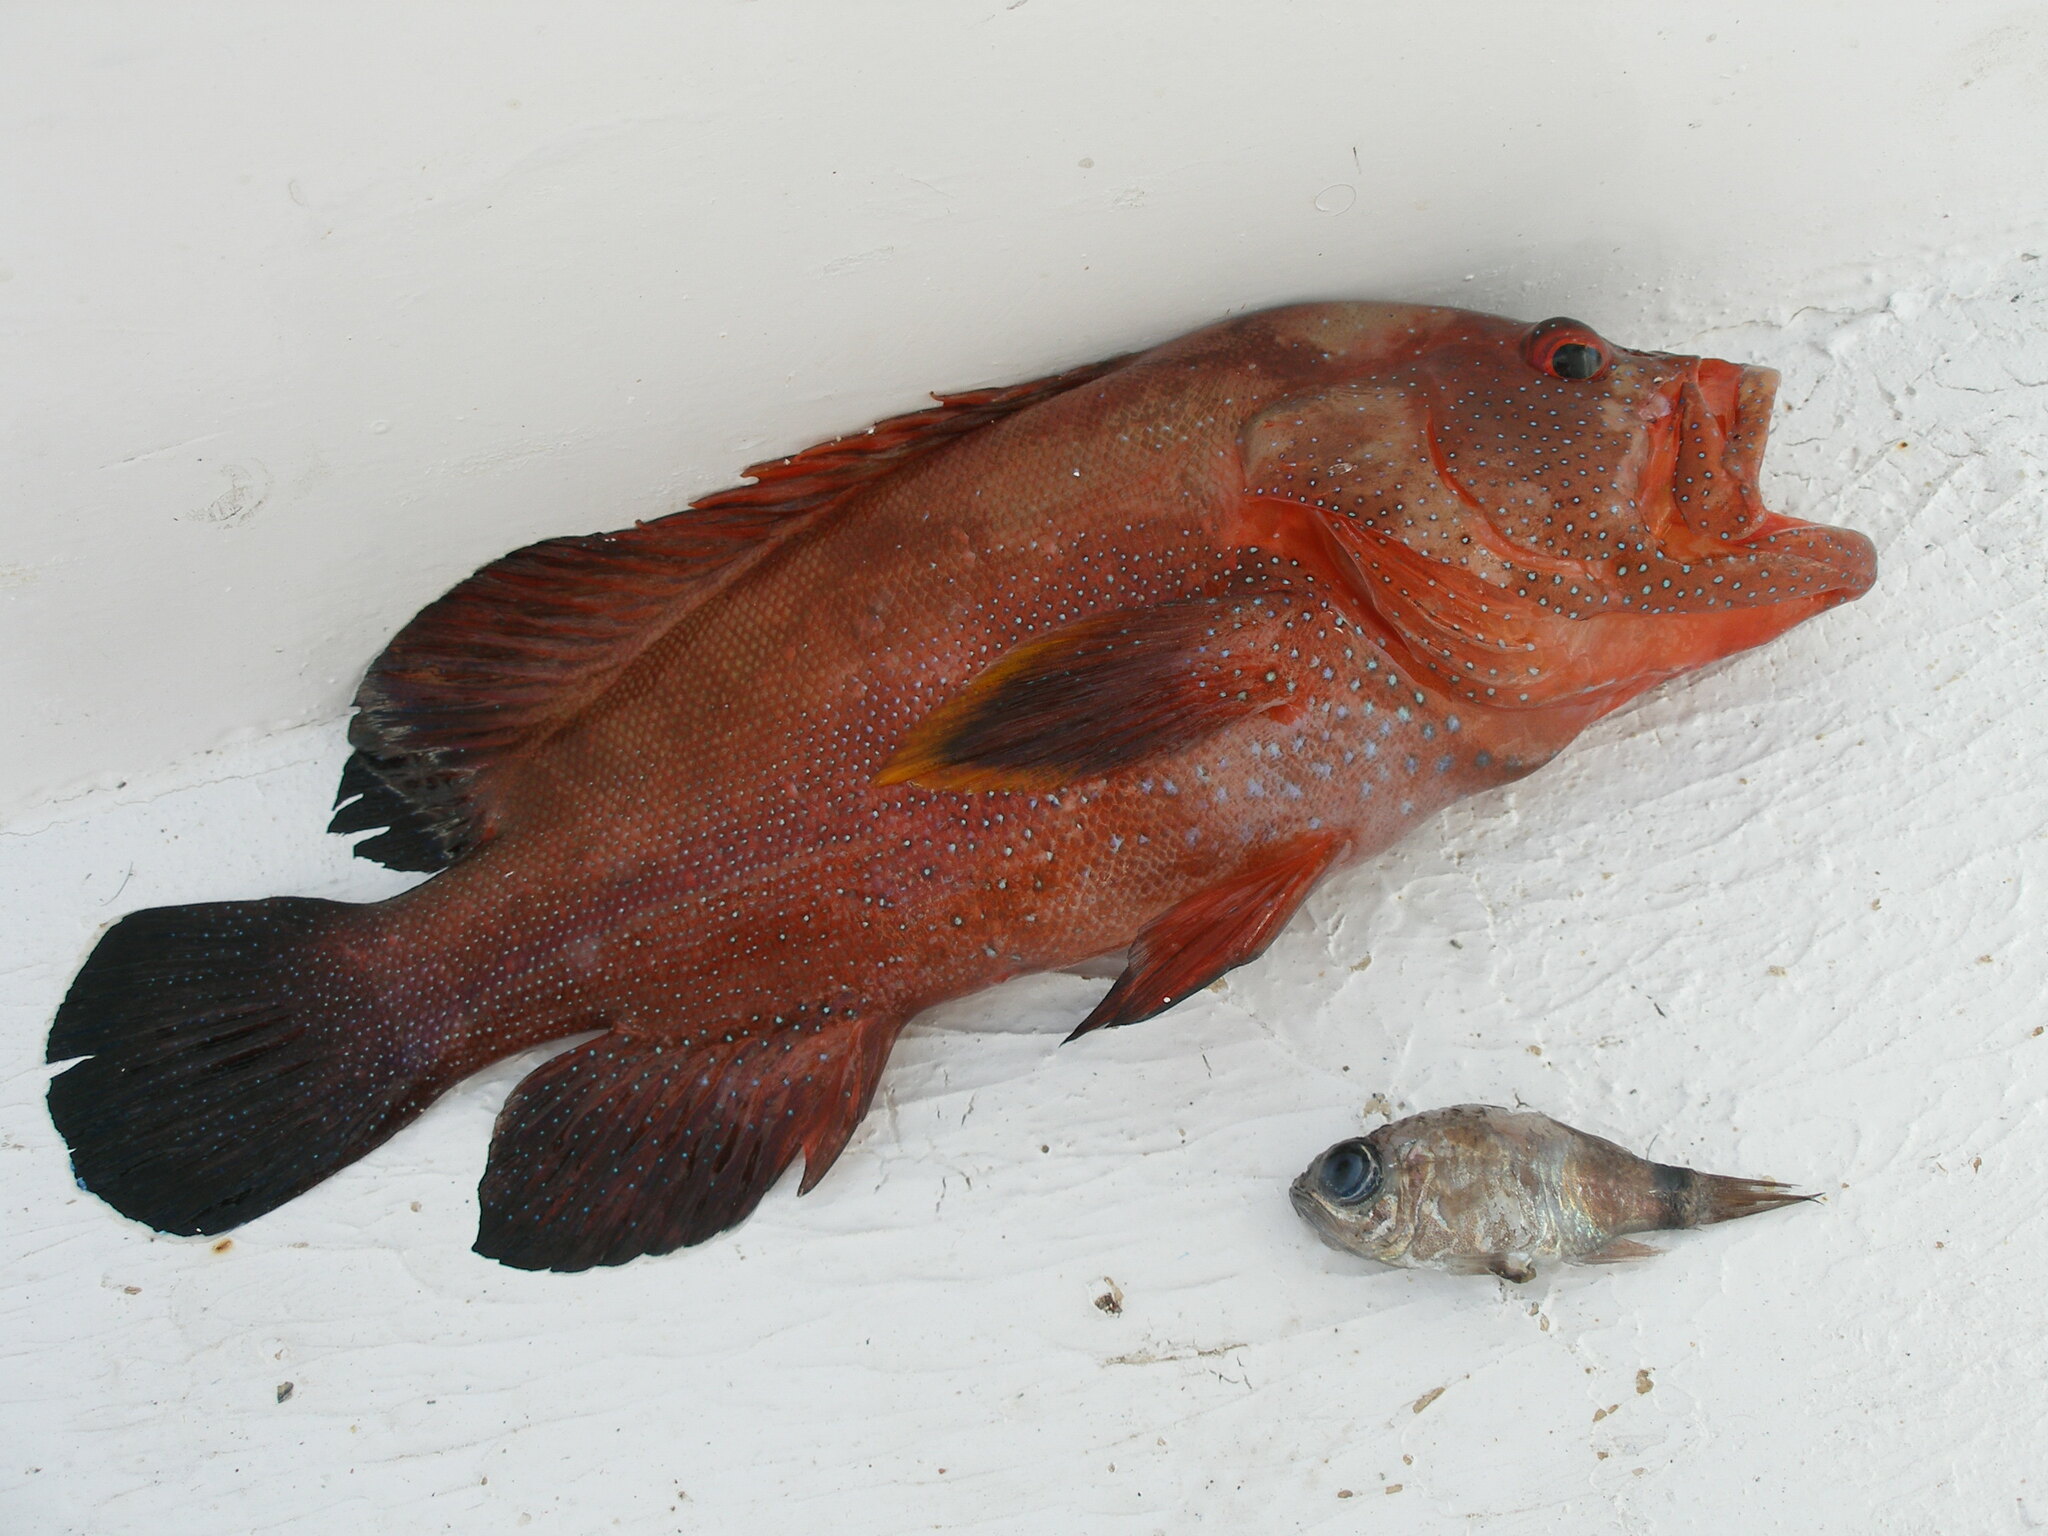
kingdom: Animalia
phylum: Chordata
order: Perciformes
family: Serranidae
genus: Cephalopholis
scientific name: Cephalopholis hemistiktos
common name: Halfspotted hind
